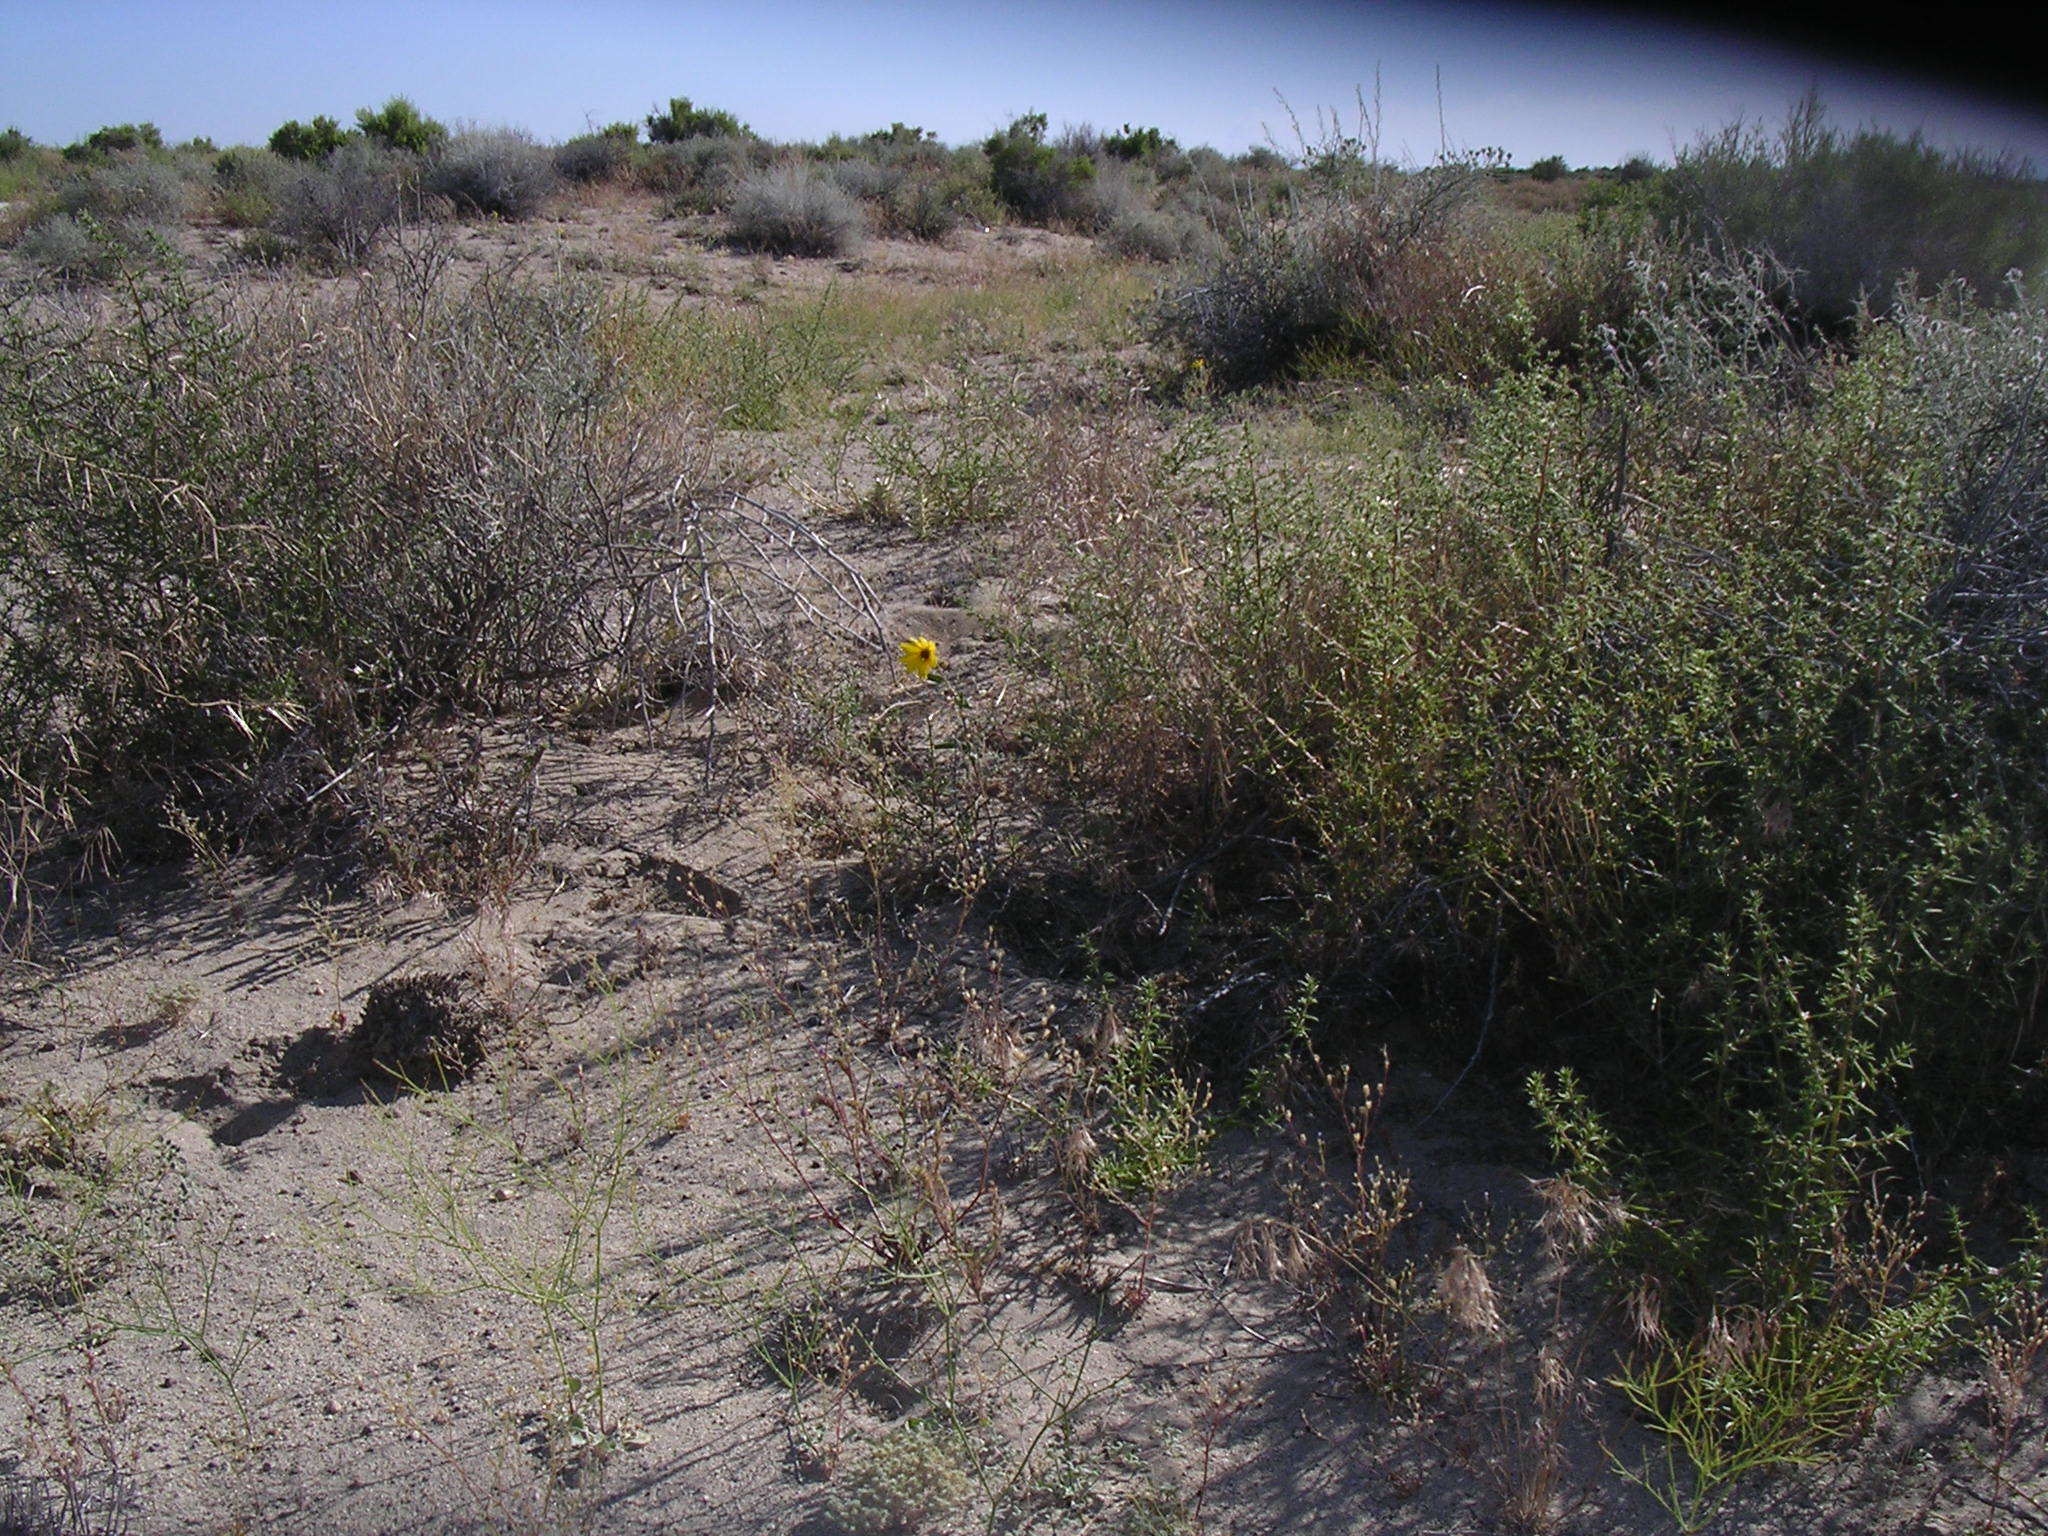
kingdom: Plantae
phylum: Tracheophyta
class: Magnoliopsida
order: Asterales
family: Asteraceae
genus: Helianthus
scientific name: Helianthus deserticola
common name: Desert sunflower
